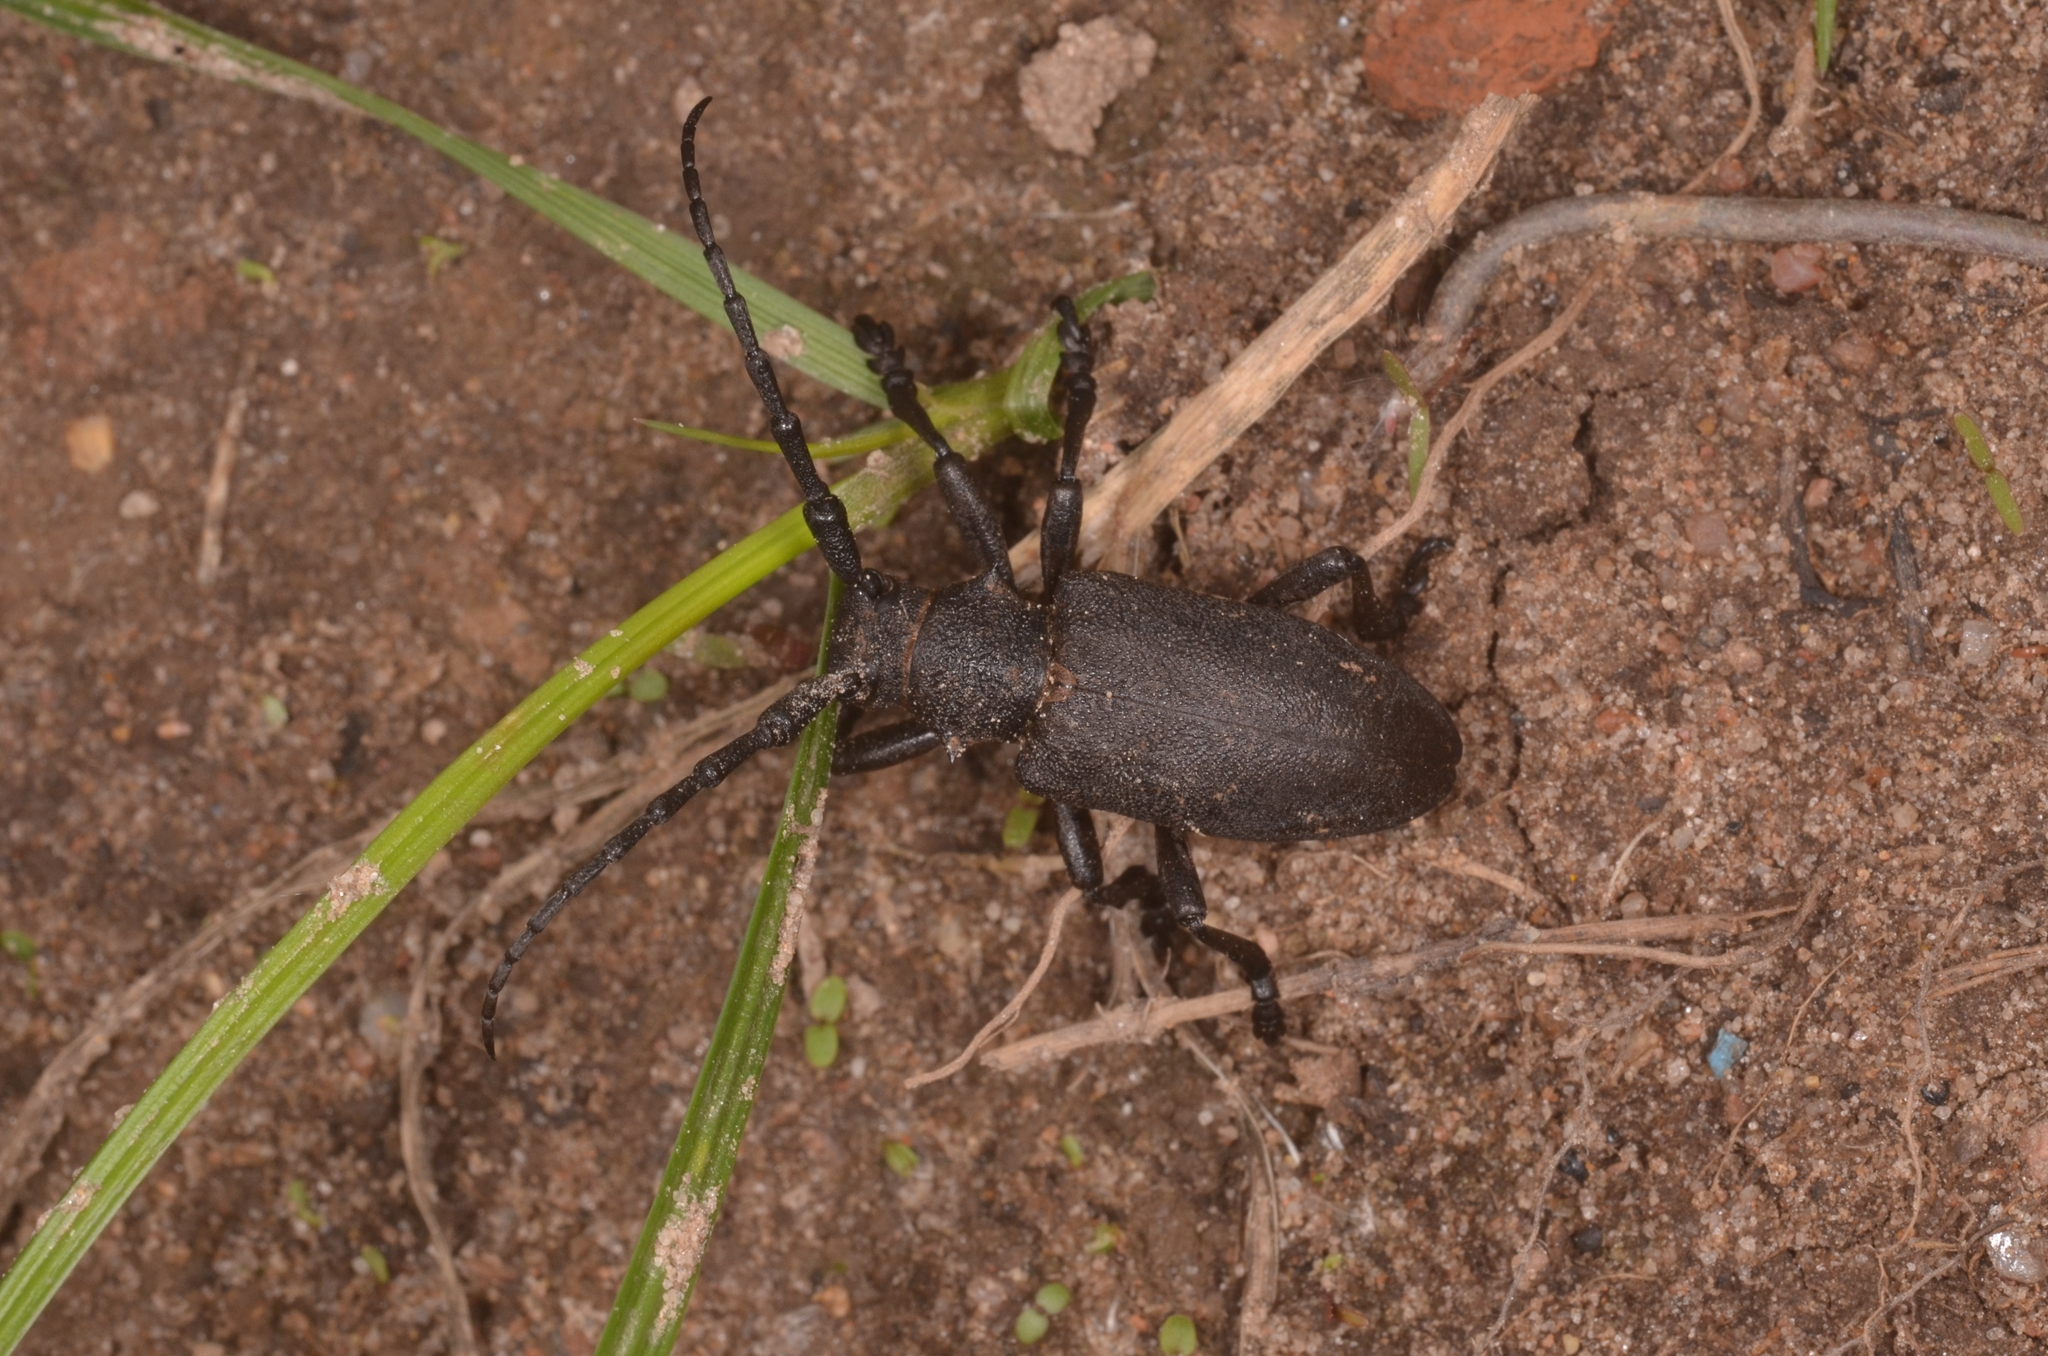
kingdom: Animalia
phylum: Arthropoda
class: Insecta
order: Coleoptera
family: Cerambycidae
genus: Lamia
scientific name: Lamia textor
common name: Weaver beetle
